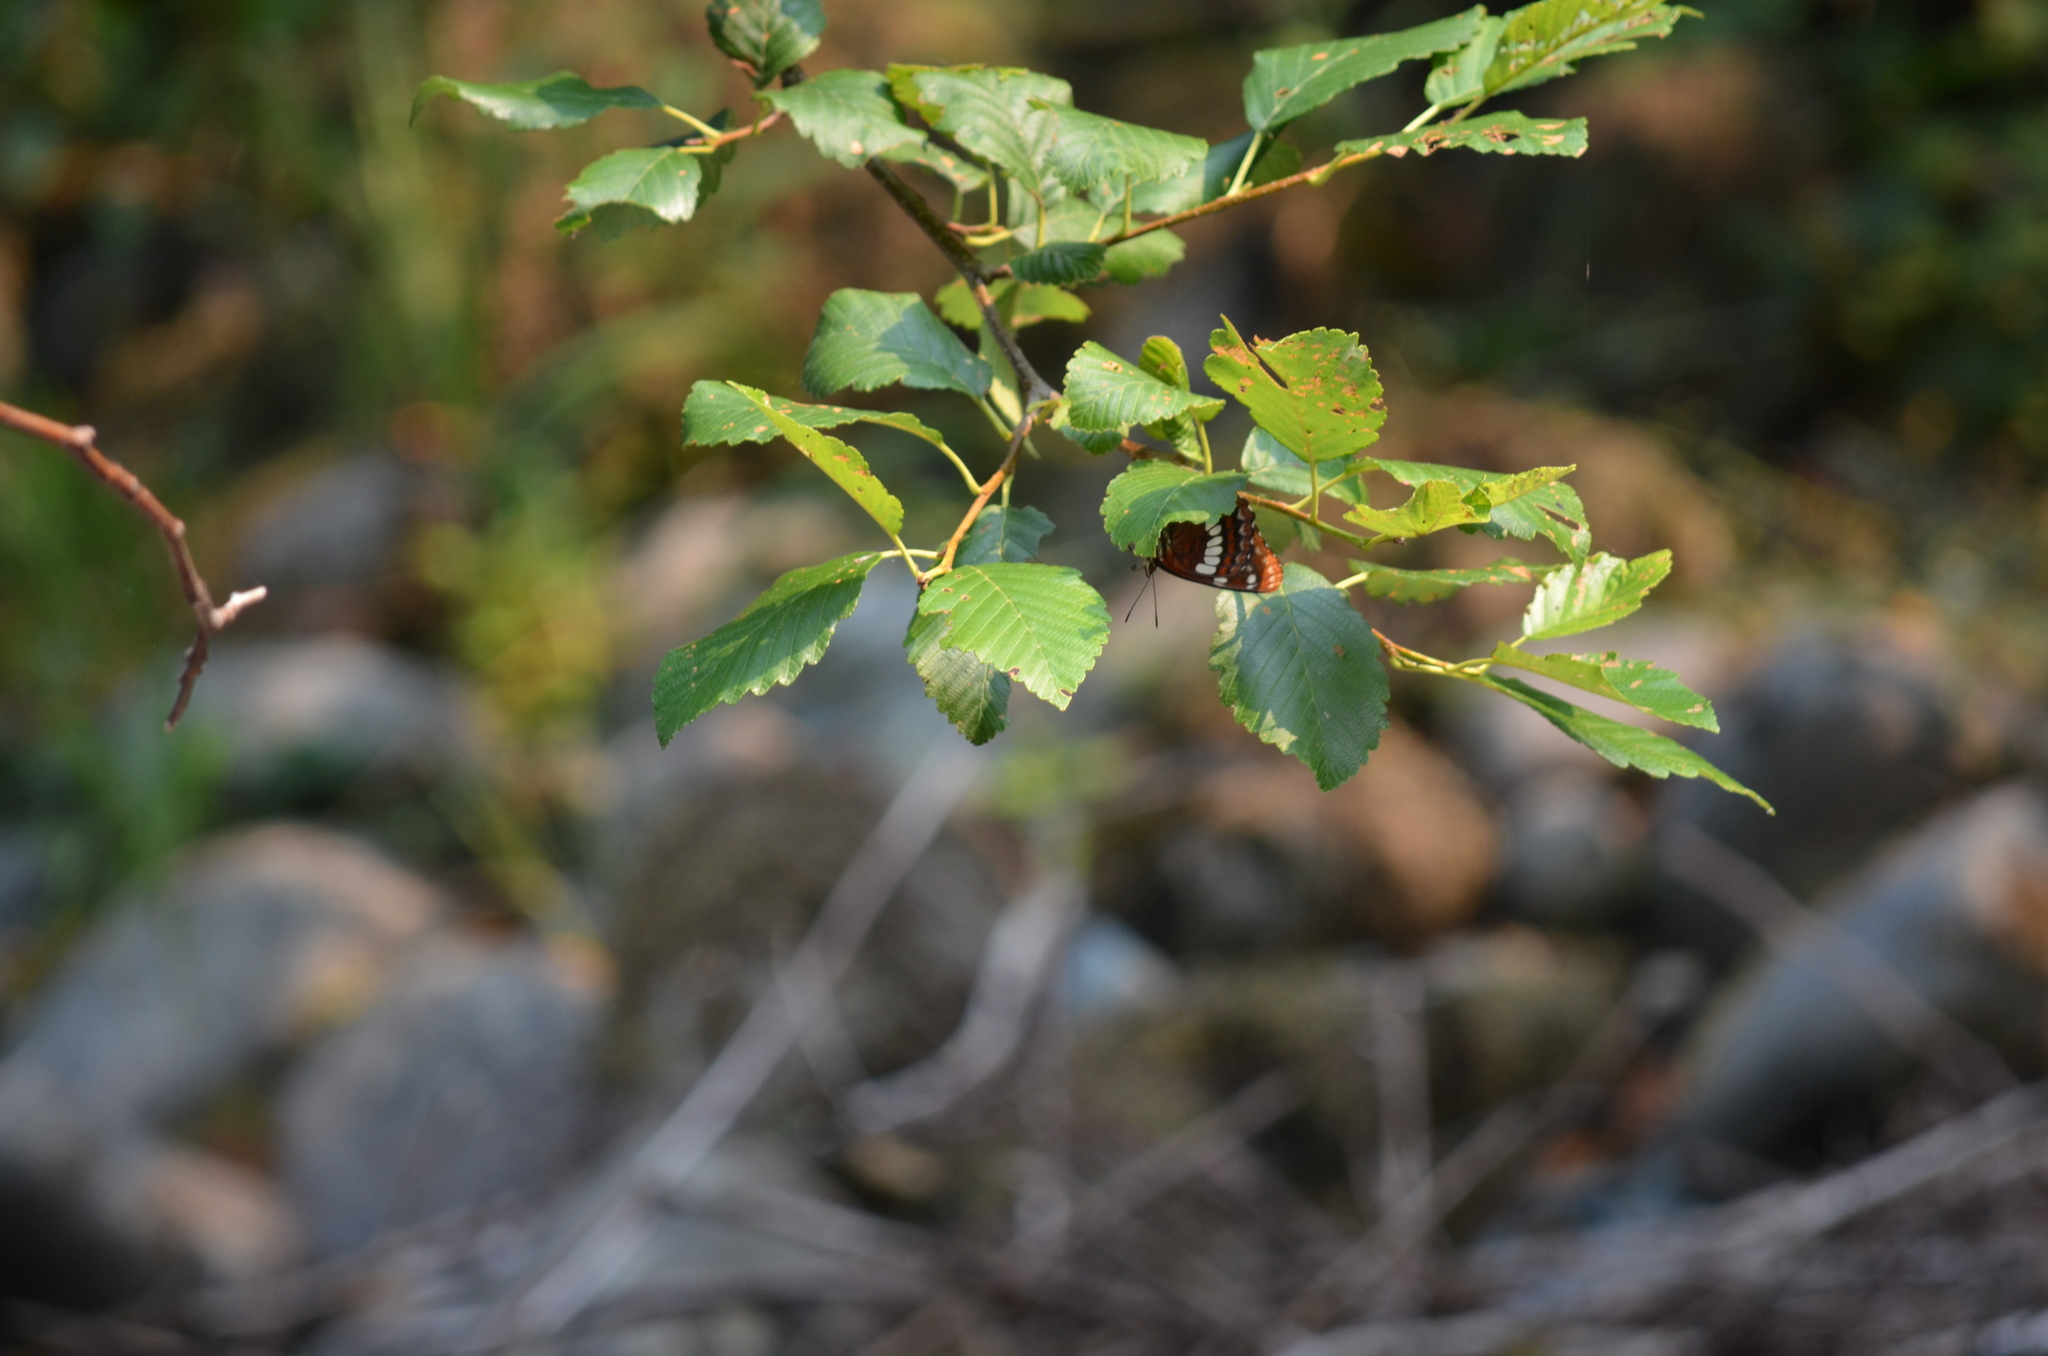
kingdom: Animalia
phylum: Arthropoda
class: Insecta
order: Lepidoptera
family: Nymphalidae
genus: Limenitis
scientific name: Limenitis lorquini
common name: Lorquin's admiral
